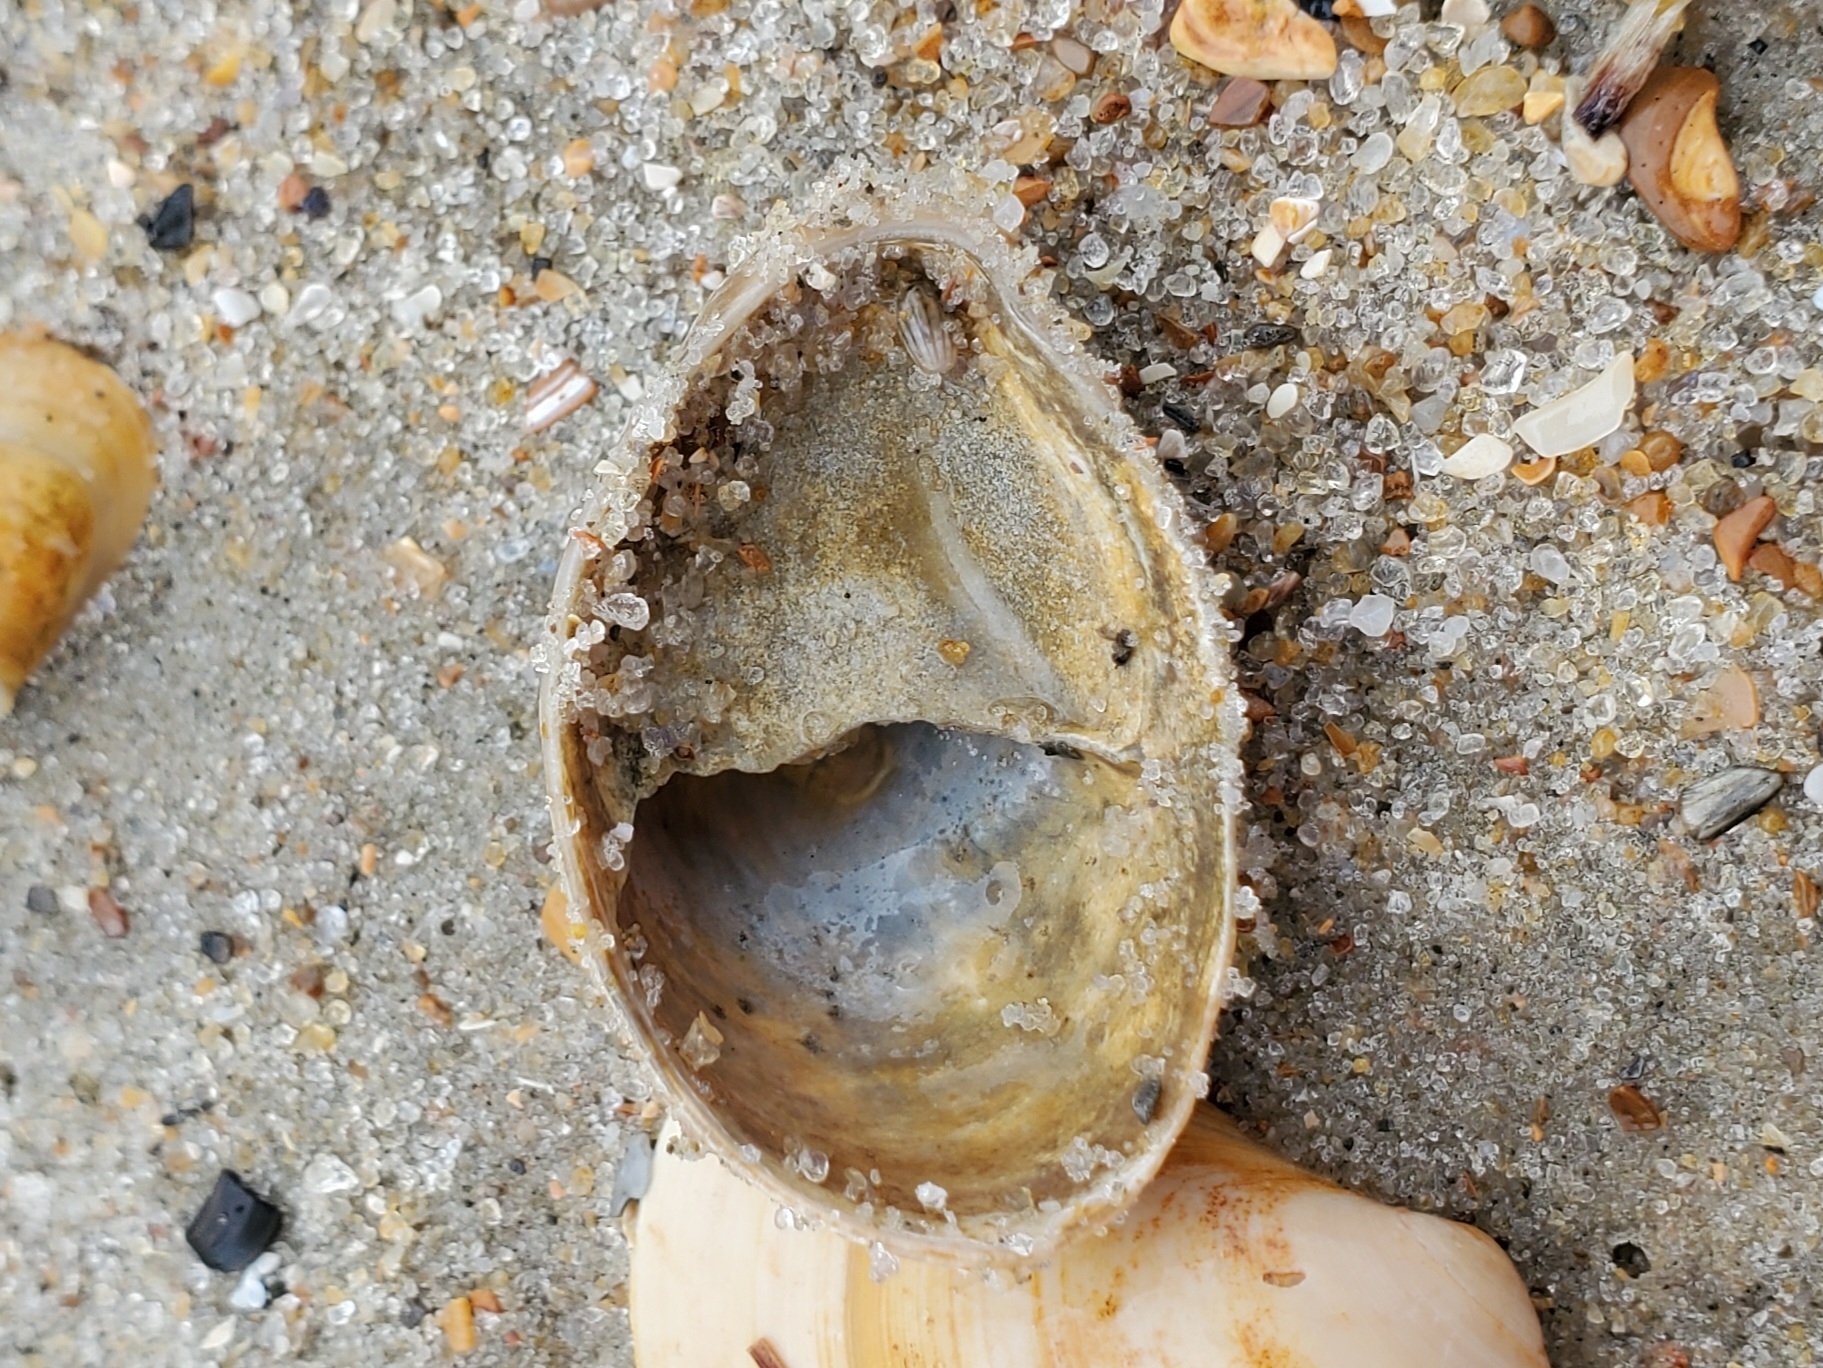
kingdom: Animalia
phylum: Mollusca
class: Gastropoda
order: Littorinimorpha
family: Calyptraeidae
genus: Crepidula
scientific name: Crepidula fornicata
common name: Slipper limpet
